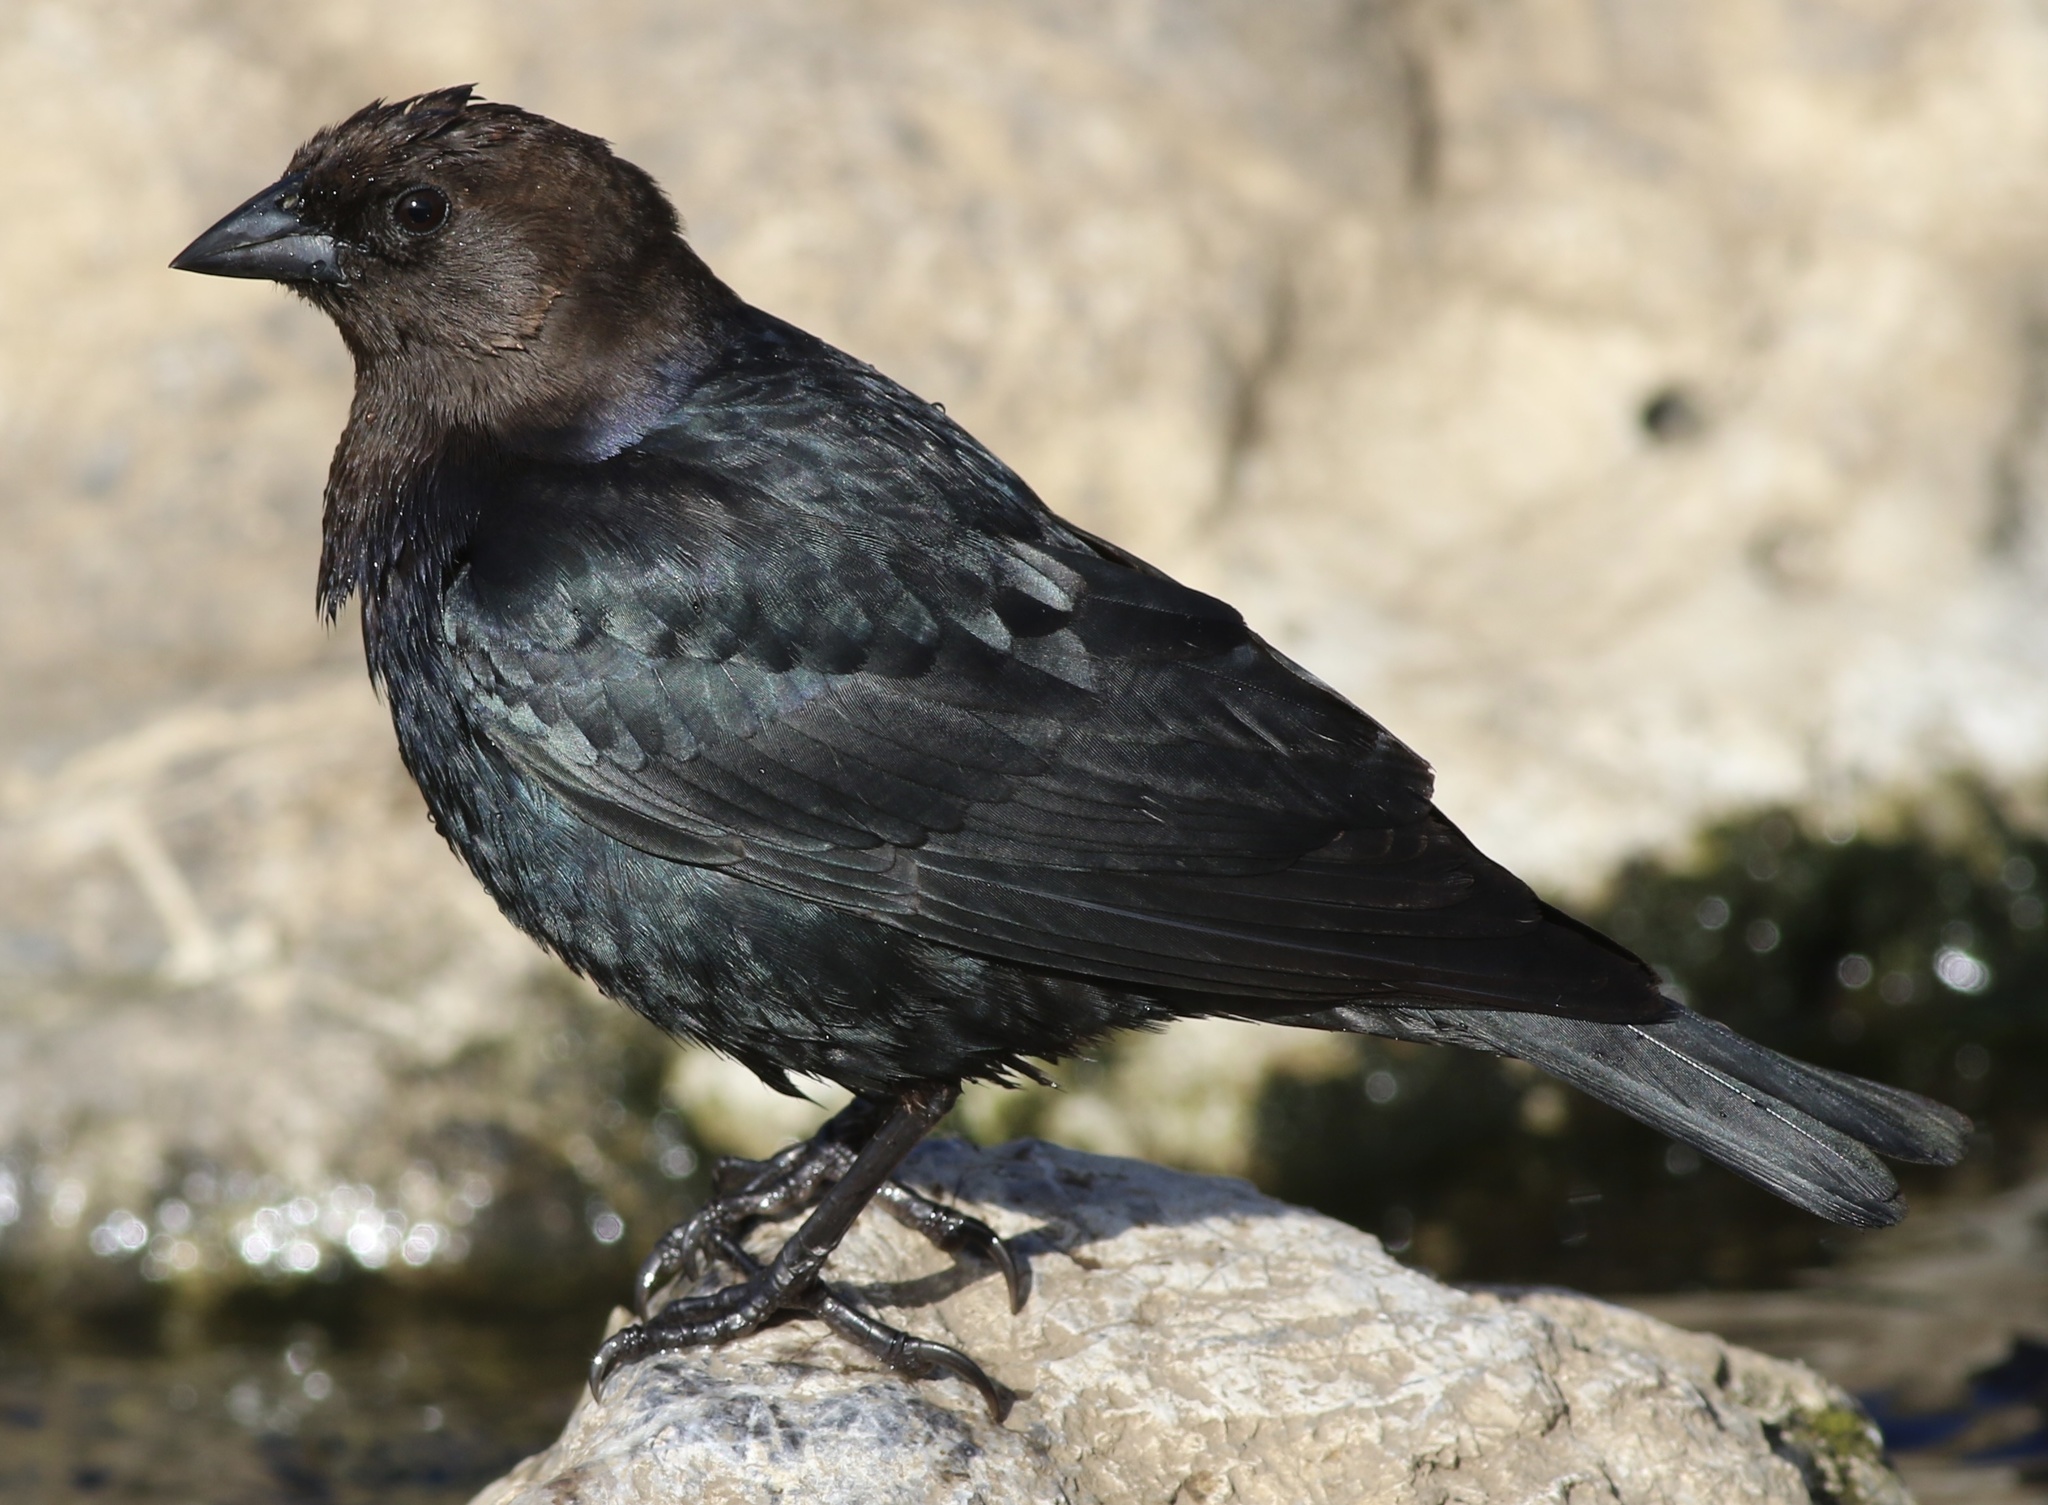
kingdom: Animalia
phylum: Chordata
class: Aves
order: Passeriformes
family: Icteridae
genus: Molothrus
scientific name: Molothrus ater
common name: Brown-headed cowbird
